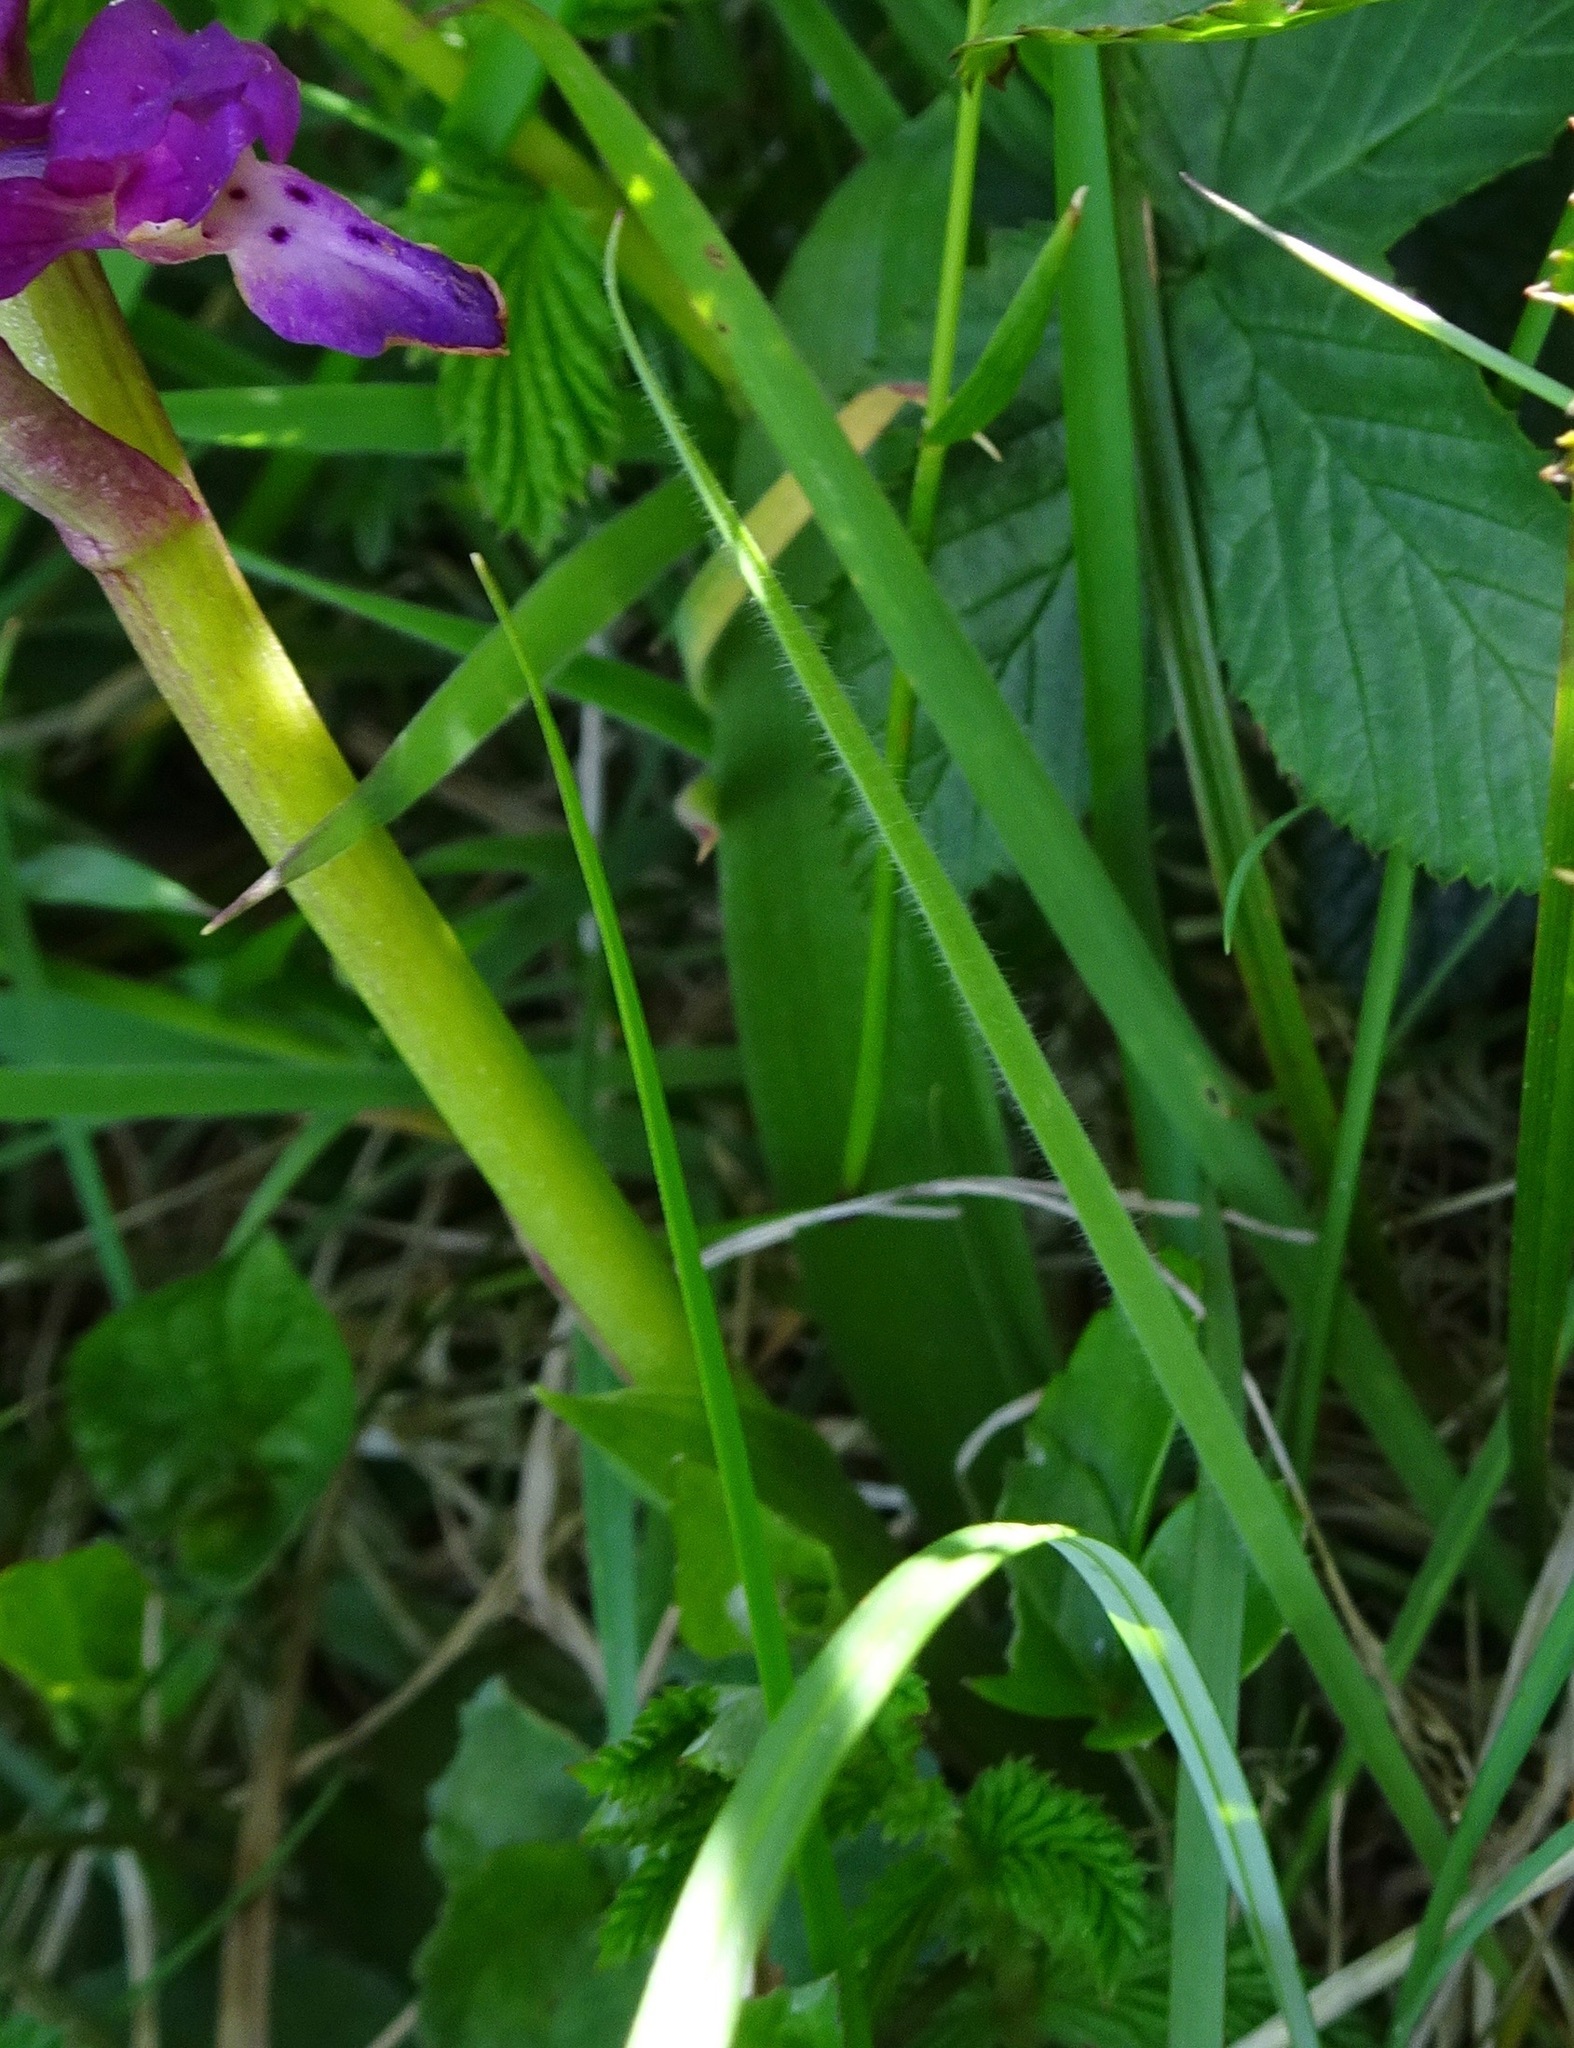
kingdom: Plantae
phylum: Tracheophyta
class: Liliopsida
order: Asparagales
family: Orchidaceae
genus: Orchis
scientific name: Orchis mascula
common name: Early-purple orchid
